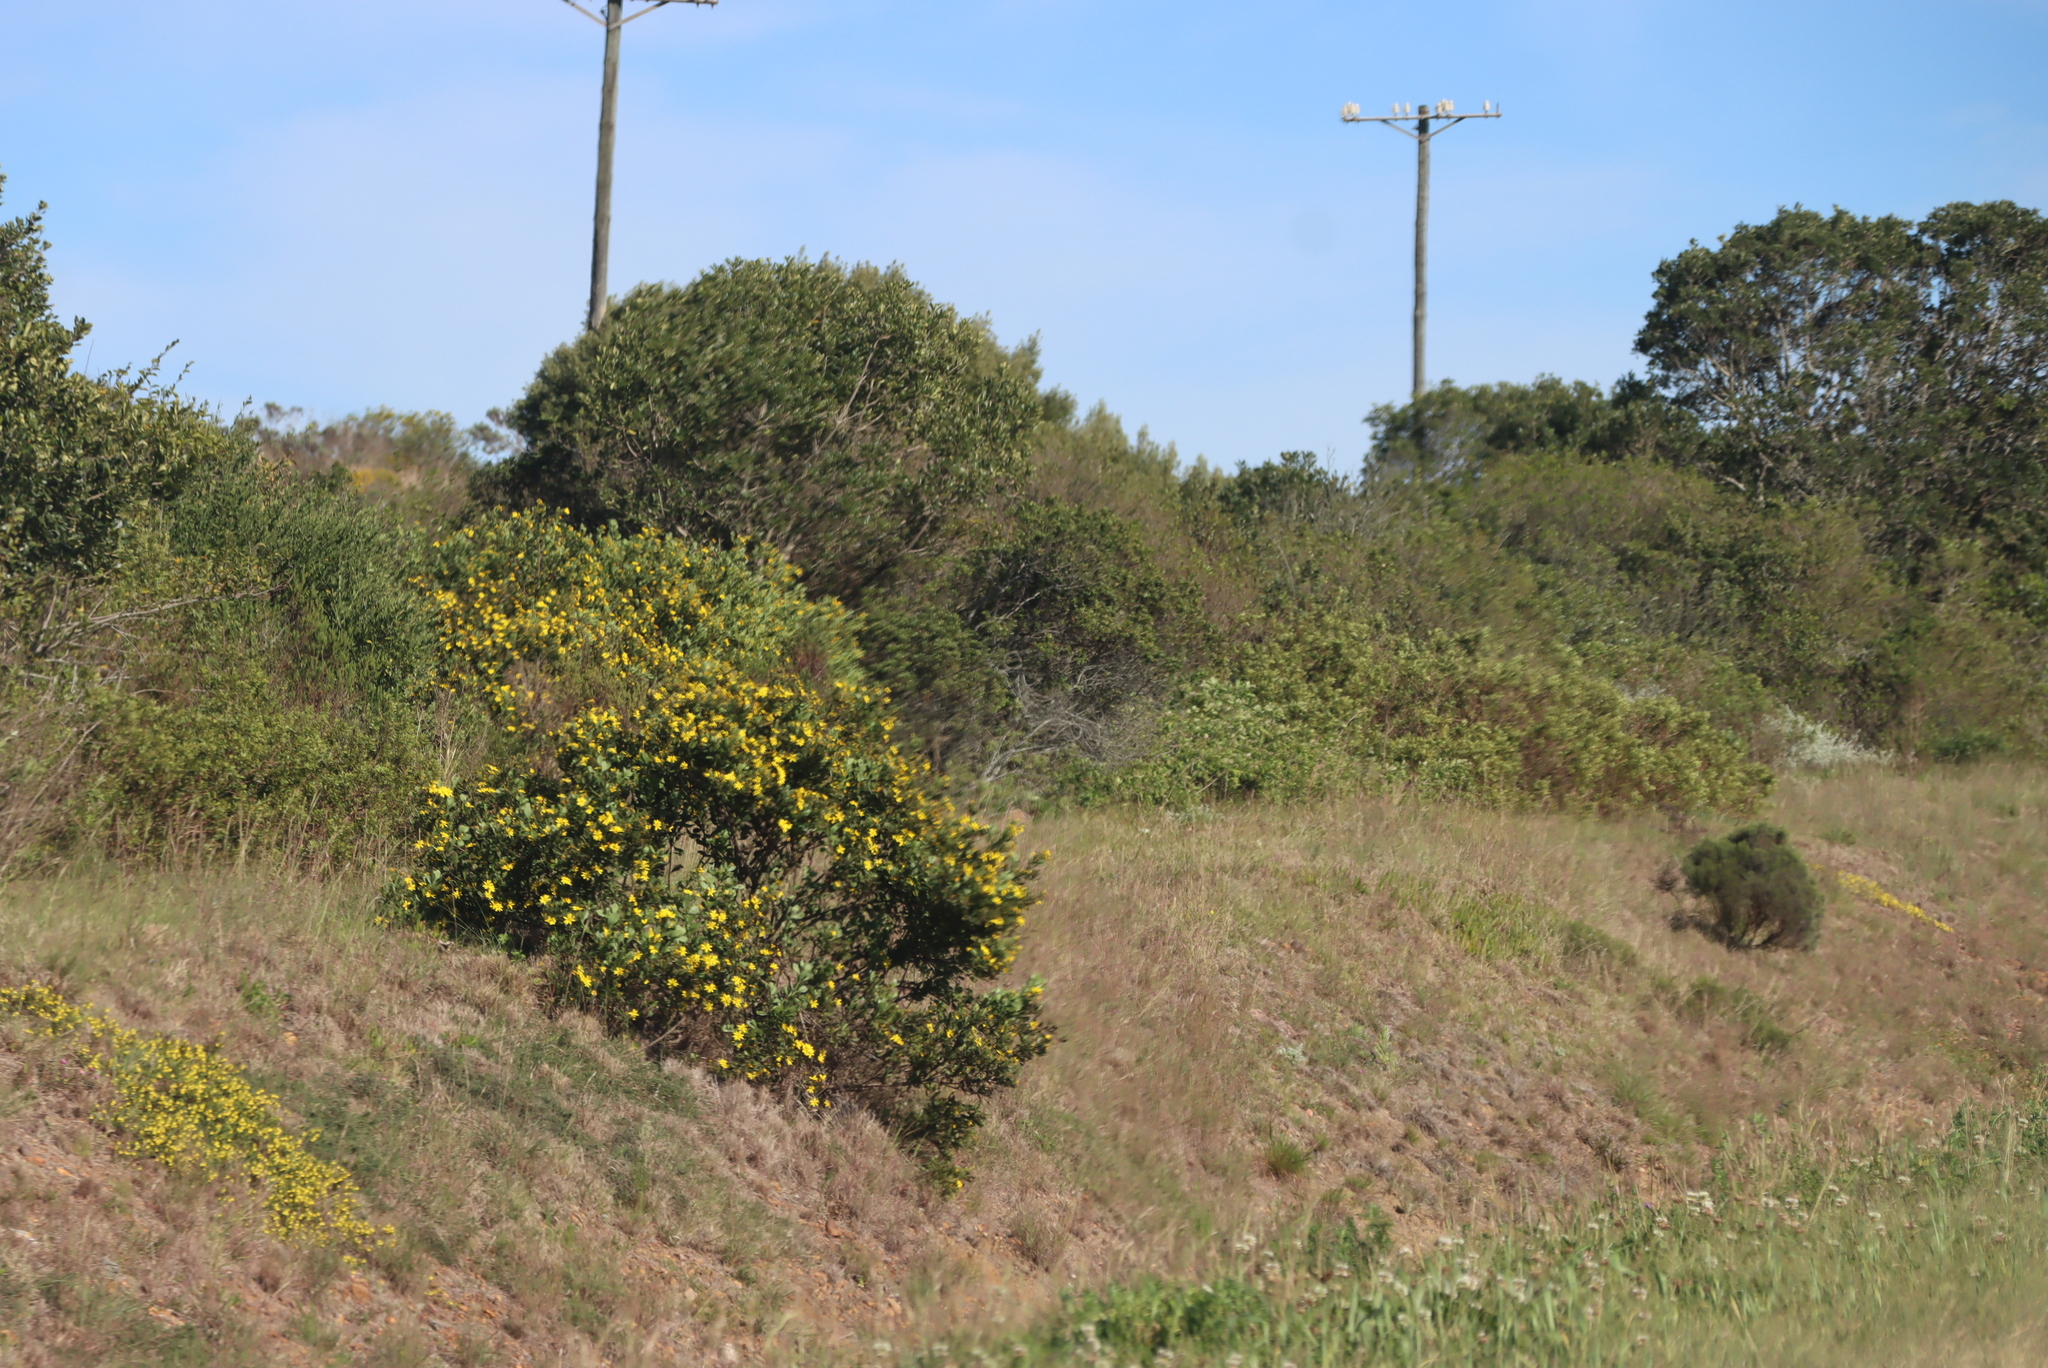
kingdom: Plantae
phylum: Tracheophyta
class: Magnoliopsida
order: Asterales
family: Asteraceae
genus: Osteospermum
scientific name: Osteospermum moniliferum
